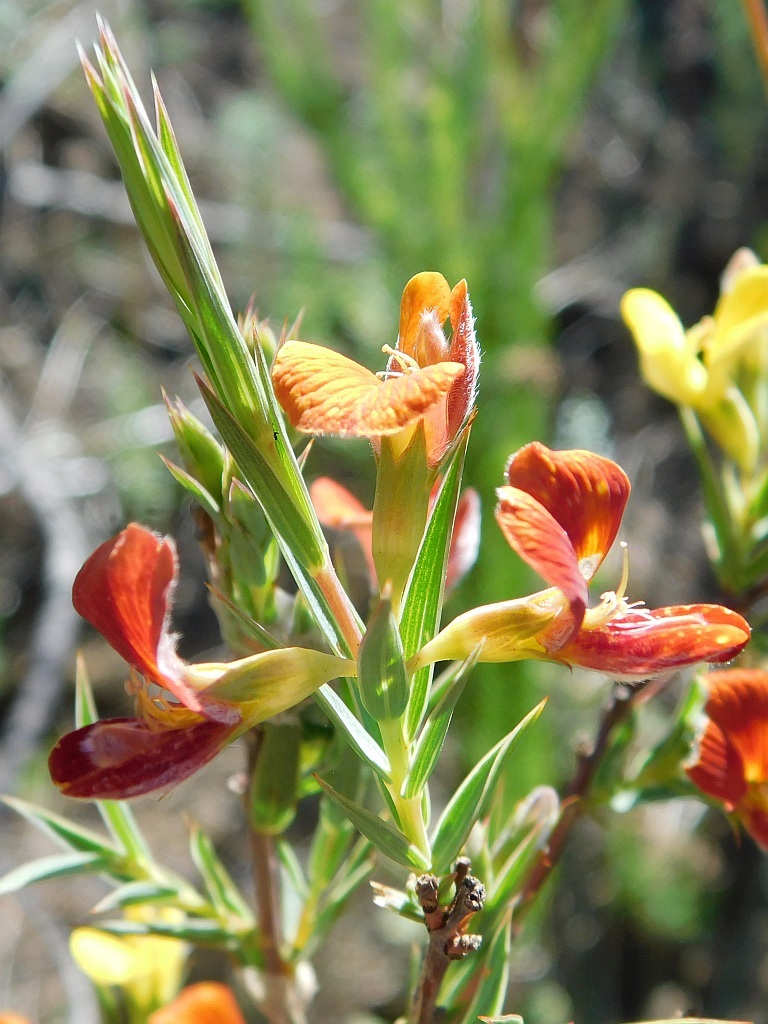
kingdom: Plantae
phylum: Tracheophyta
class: Magnoliopsida
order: Fabales
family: Fabaceae
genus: Aspalathus
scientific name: Aspalathus angustifolia
